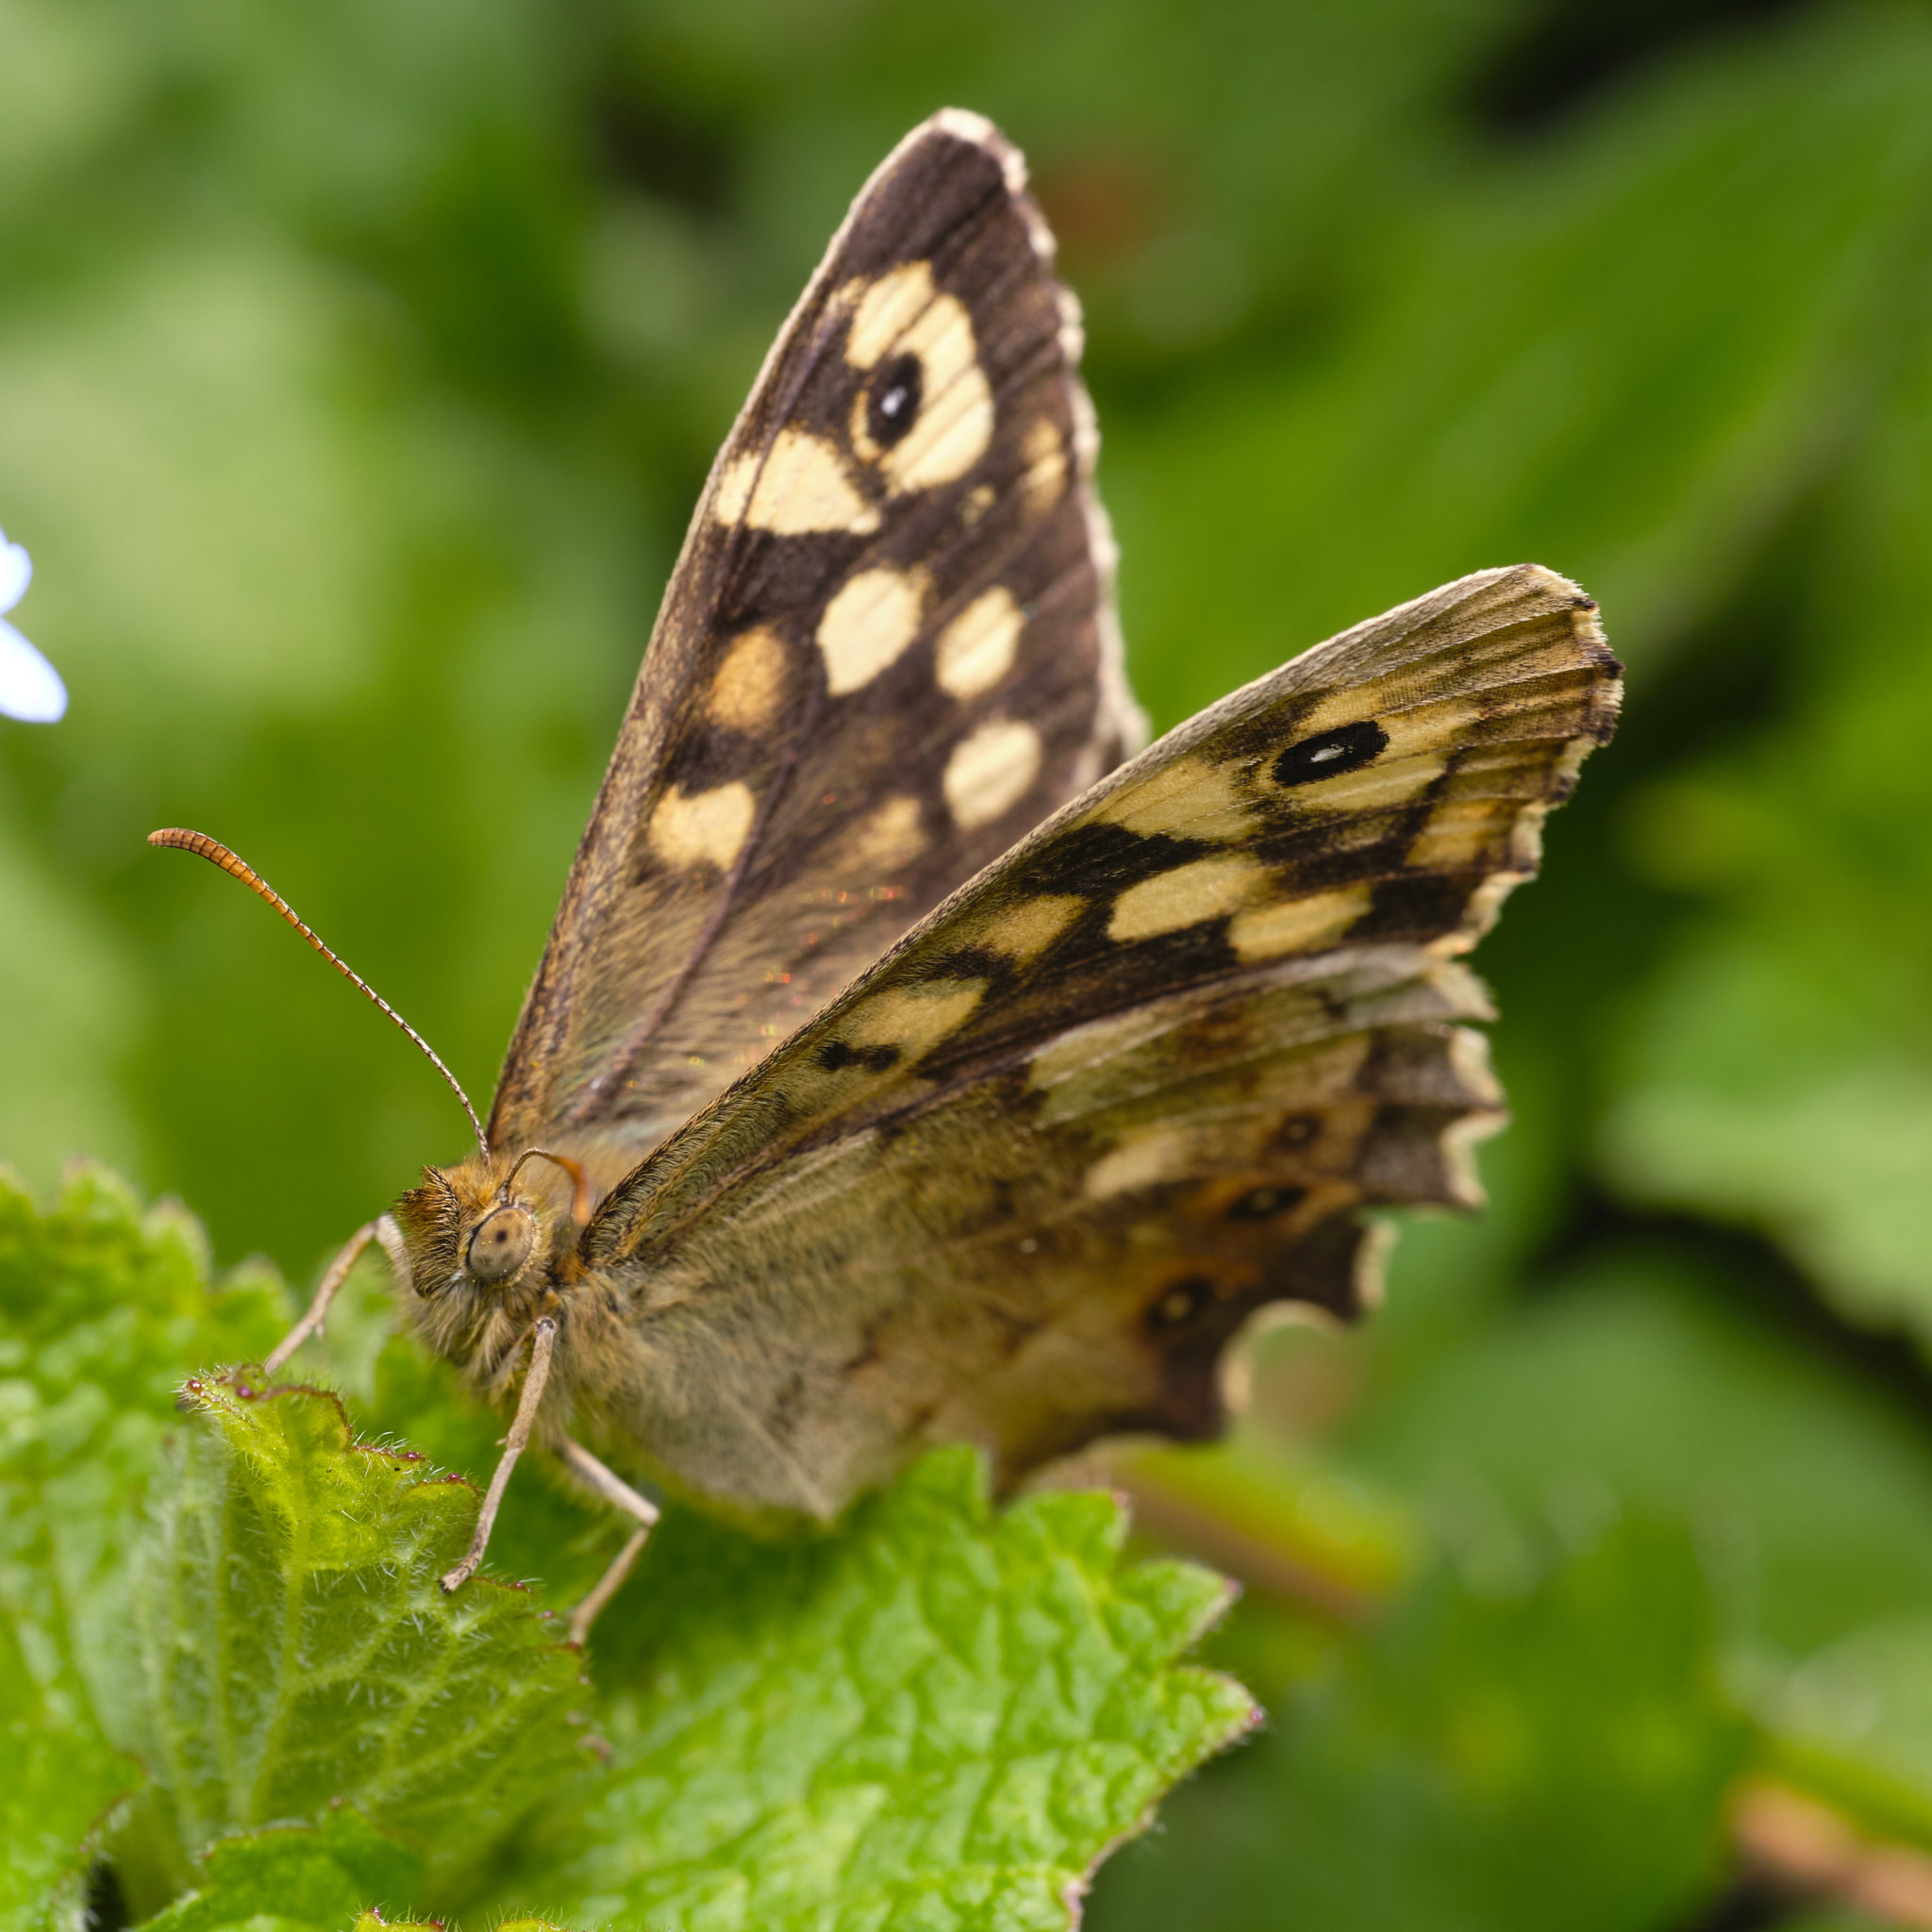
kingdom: Animalia
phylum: Arthropoda
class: Insecta
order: Lepidoptera
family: Nymphalidae
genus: Pararge
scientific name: Pararge aegeria
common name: Speckled wood
